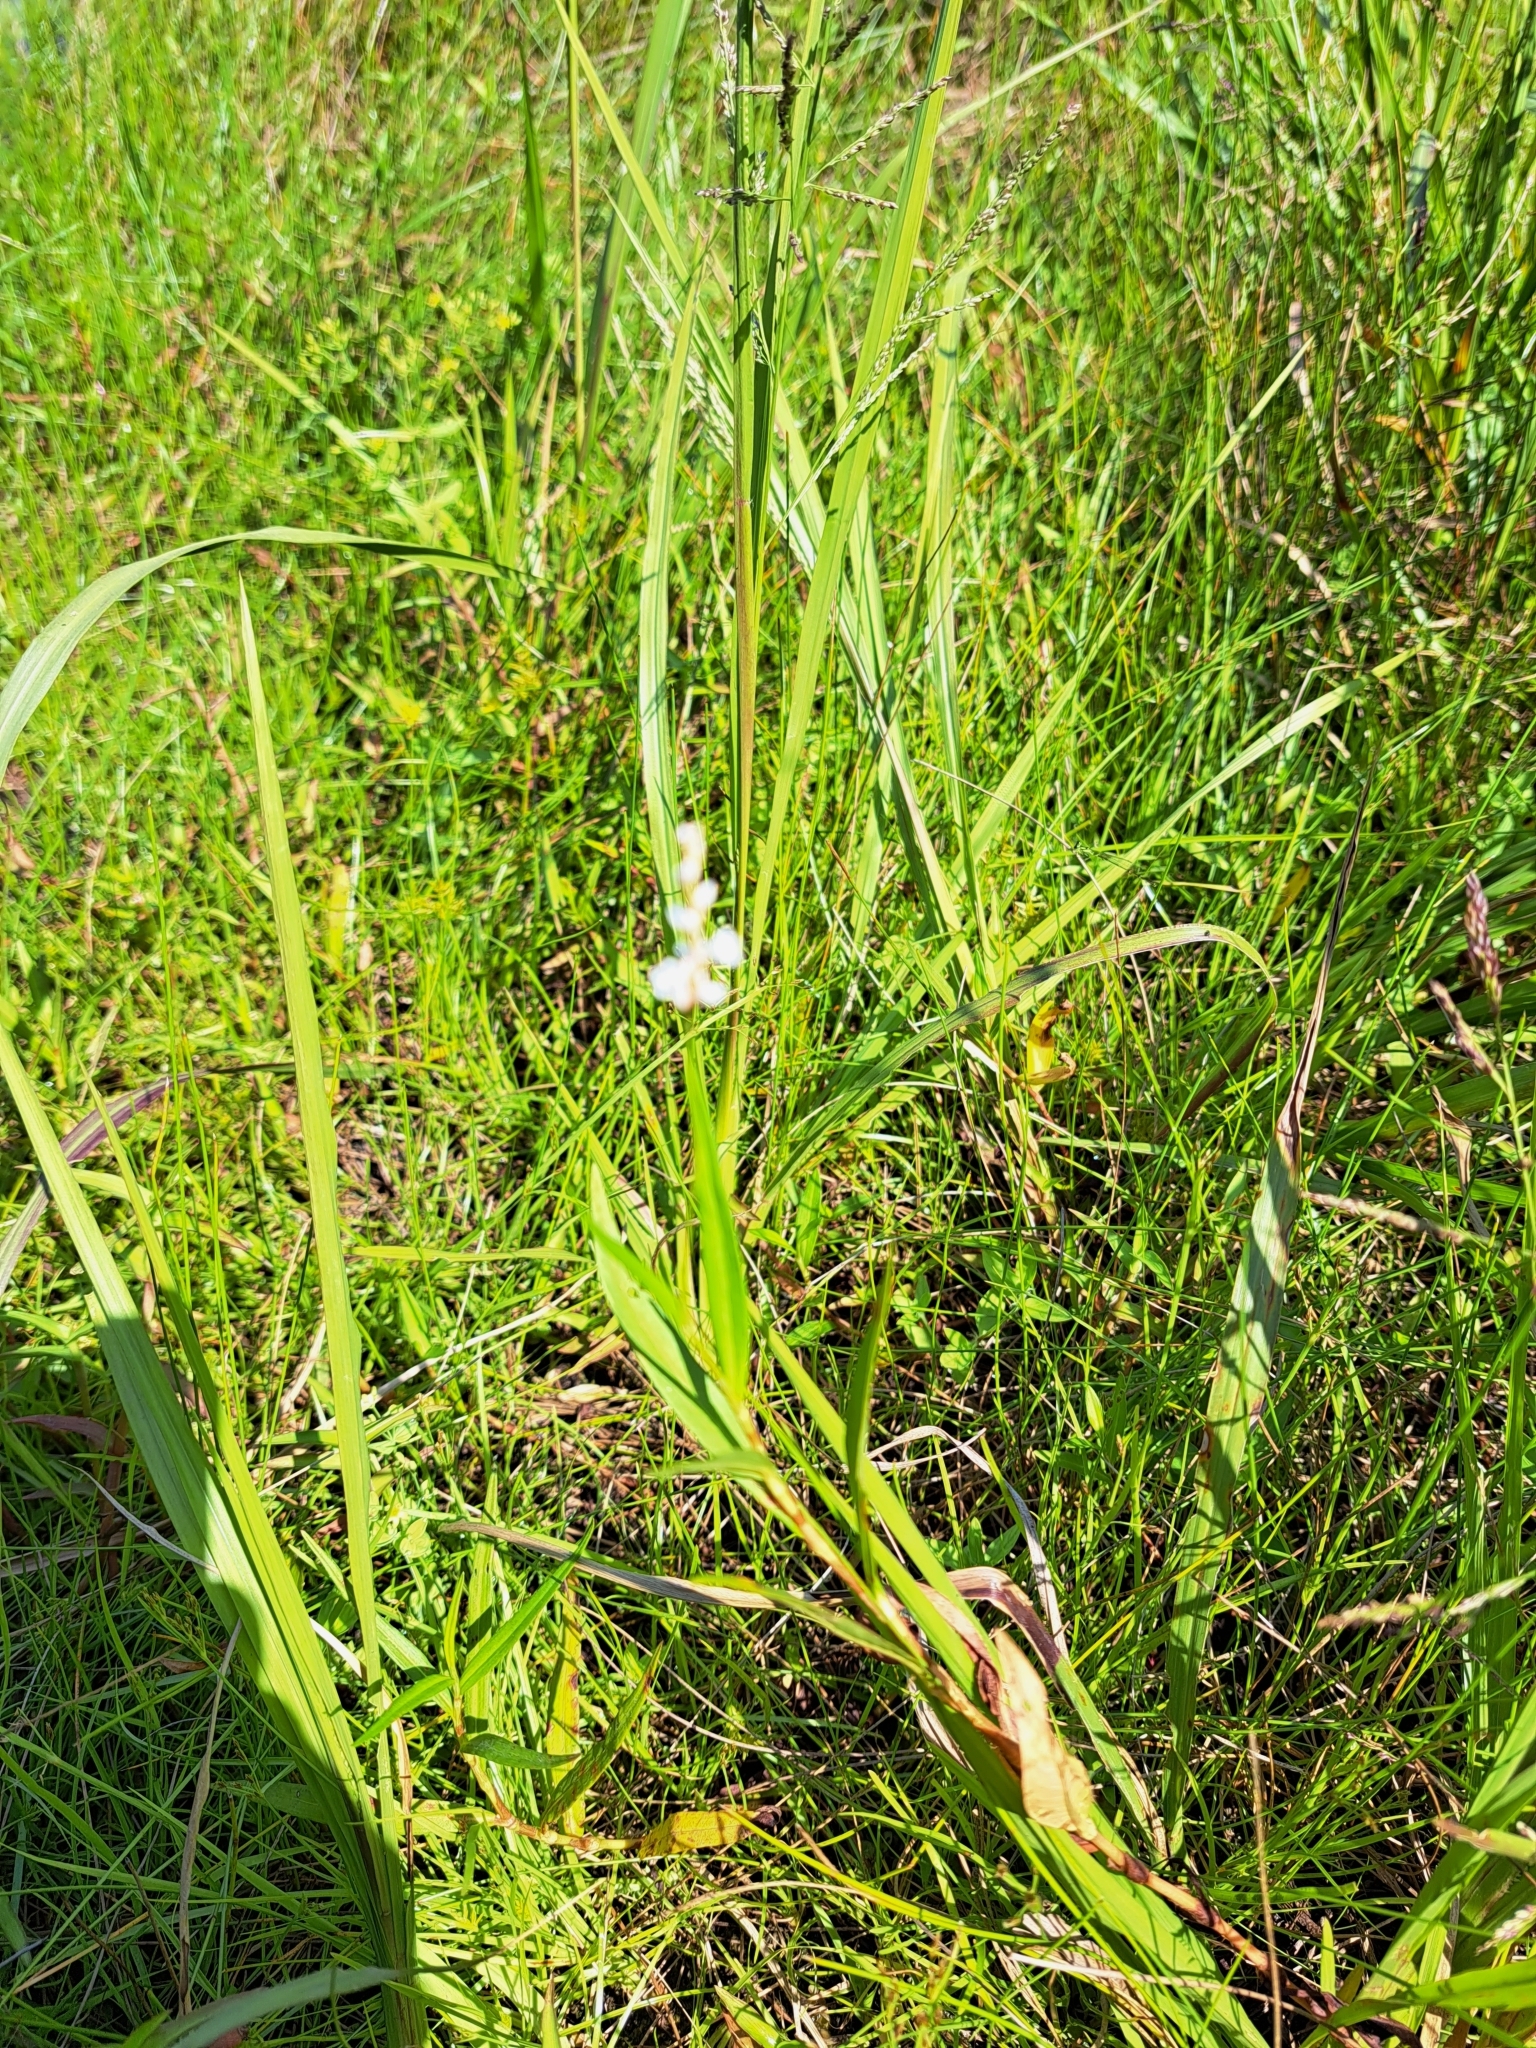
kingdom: Plantae
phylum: Tracheophyta
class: Magnoliopsida
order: Caryophyllales
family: Polygonaceae
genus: Persicaria
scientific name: Persicaria hydropiperoides
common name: Swamp smartweed
